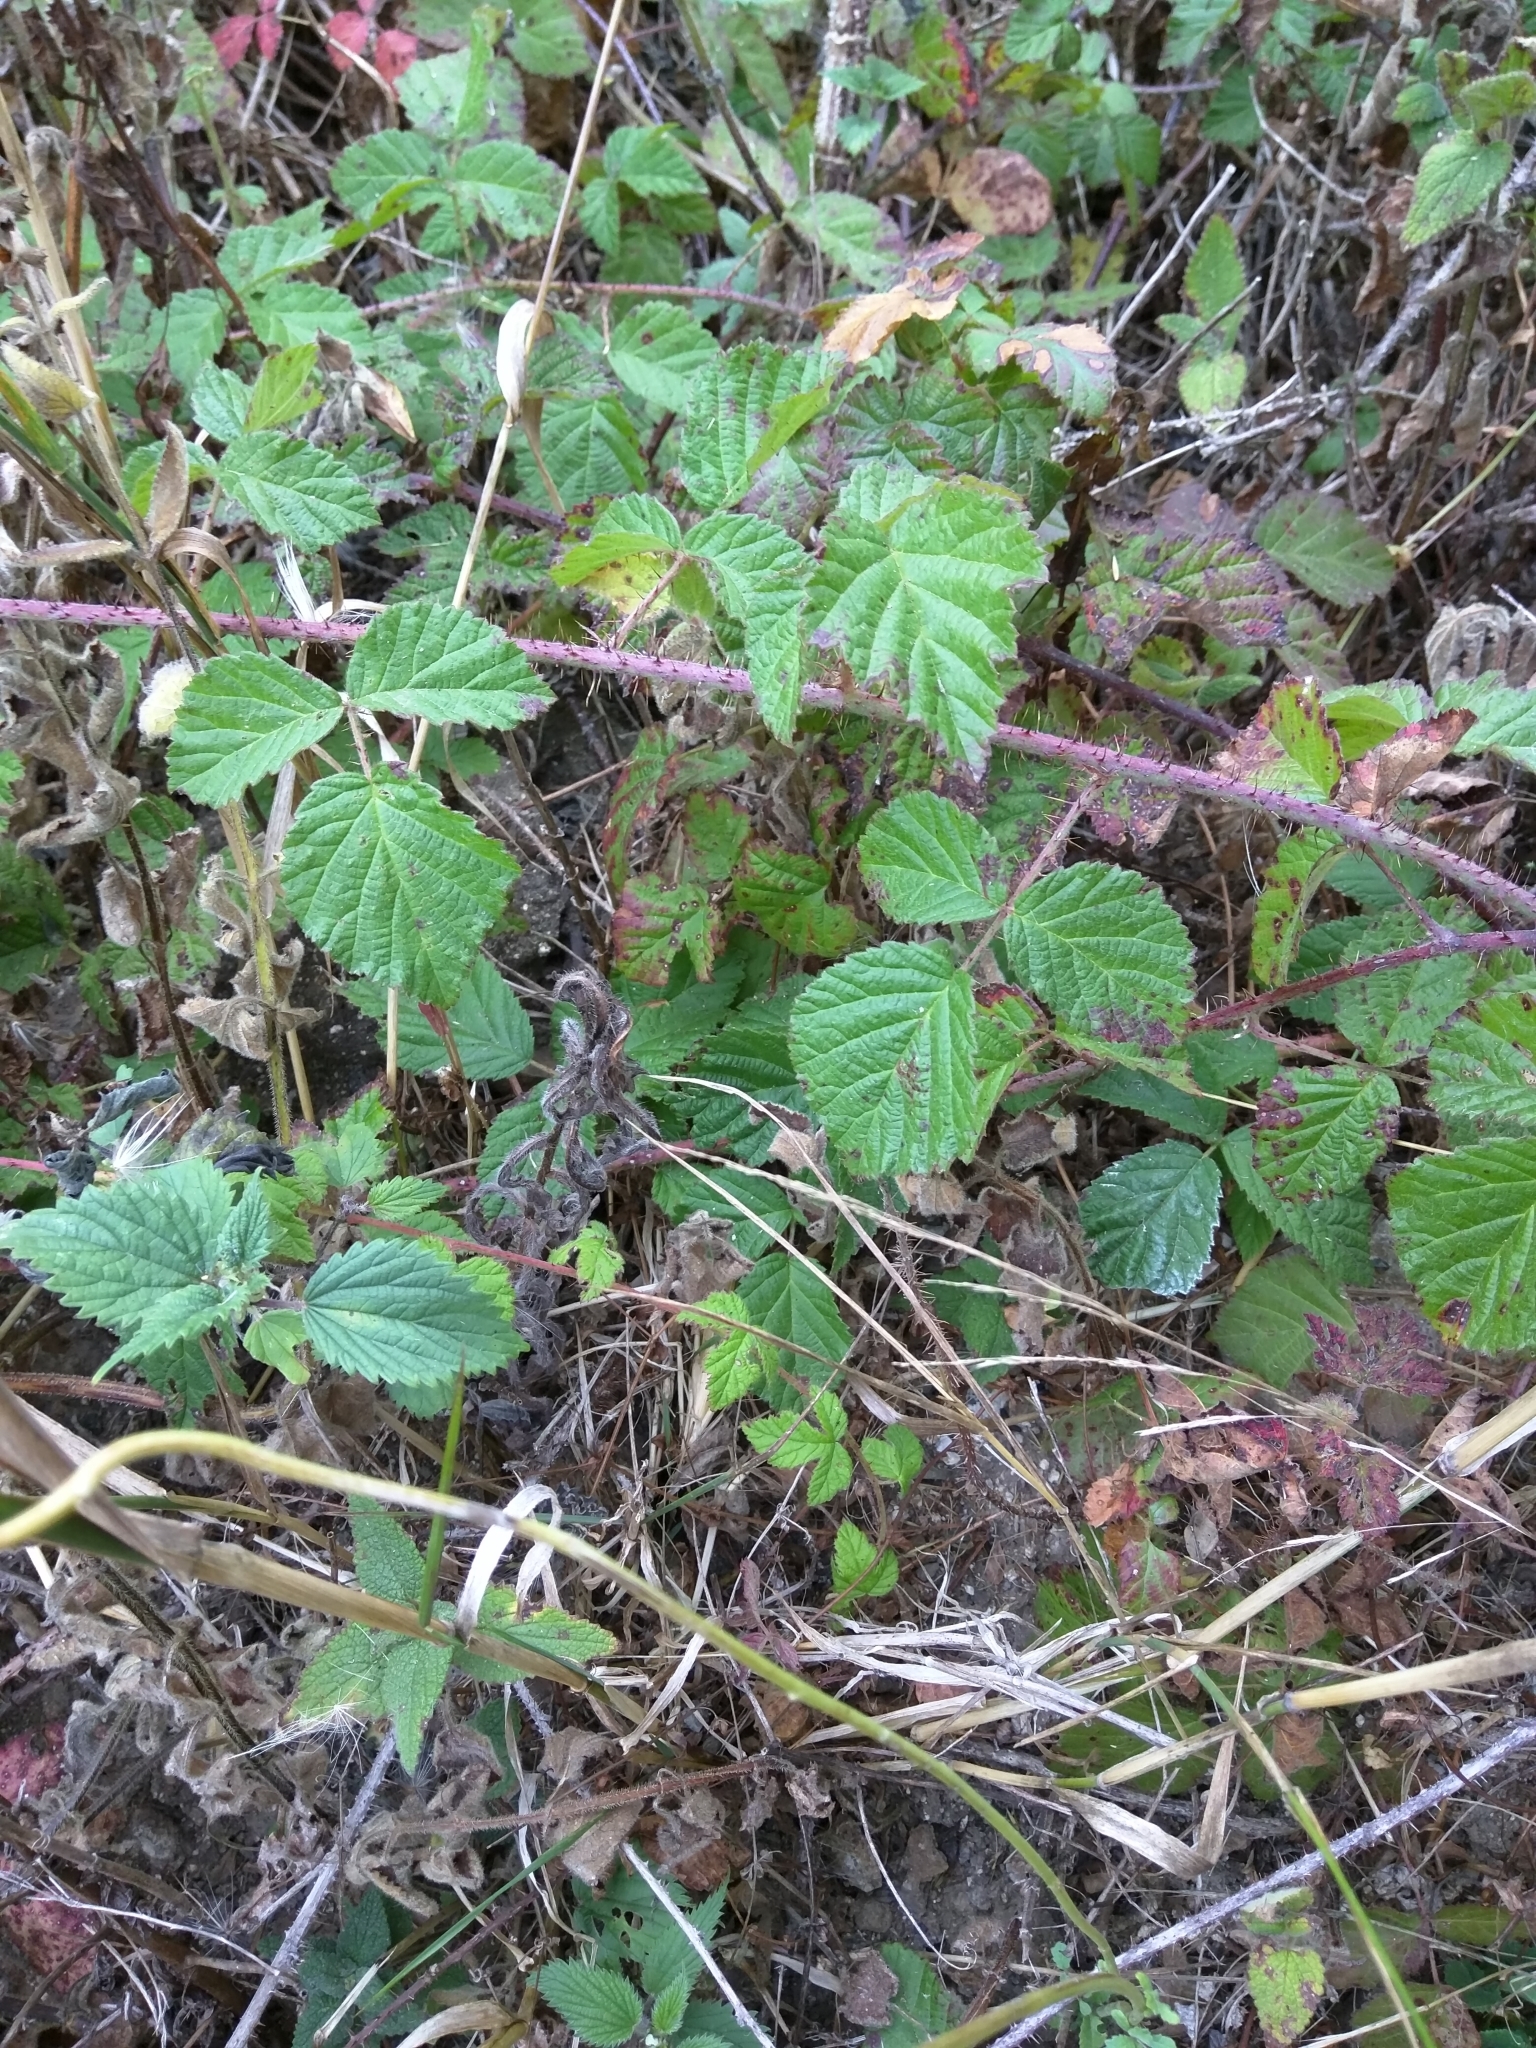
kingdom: Plantae
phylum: Tracheophyta
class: Magnoliopsida
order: Rosales
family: Rosaceae
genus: Rubus
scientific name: Rubus ursinus
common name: Pacific blackberry
